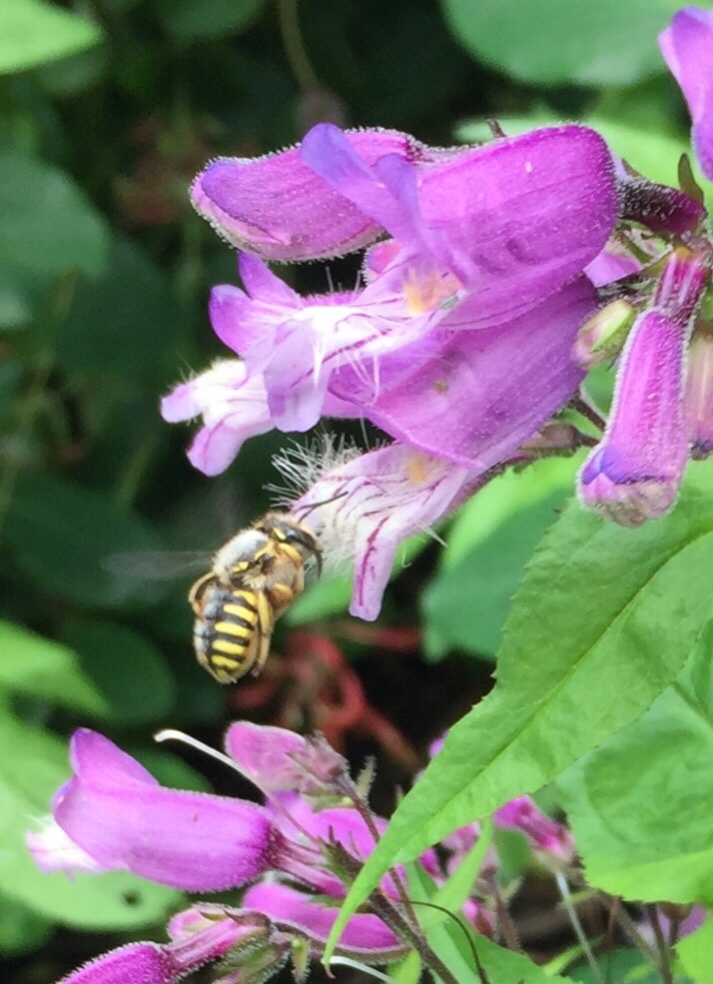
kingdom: Animalia
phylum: Arthropoda
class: Insecta
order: Hymenoptera
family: Megachilidae
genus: Anthidium
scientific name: Anthidium manicatum
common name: Wool carder bee
